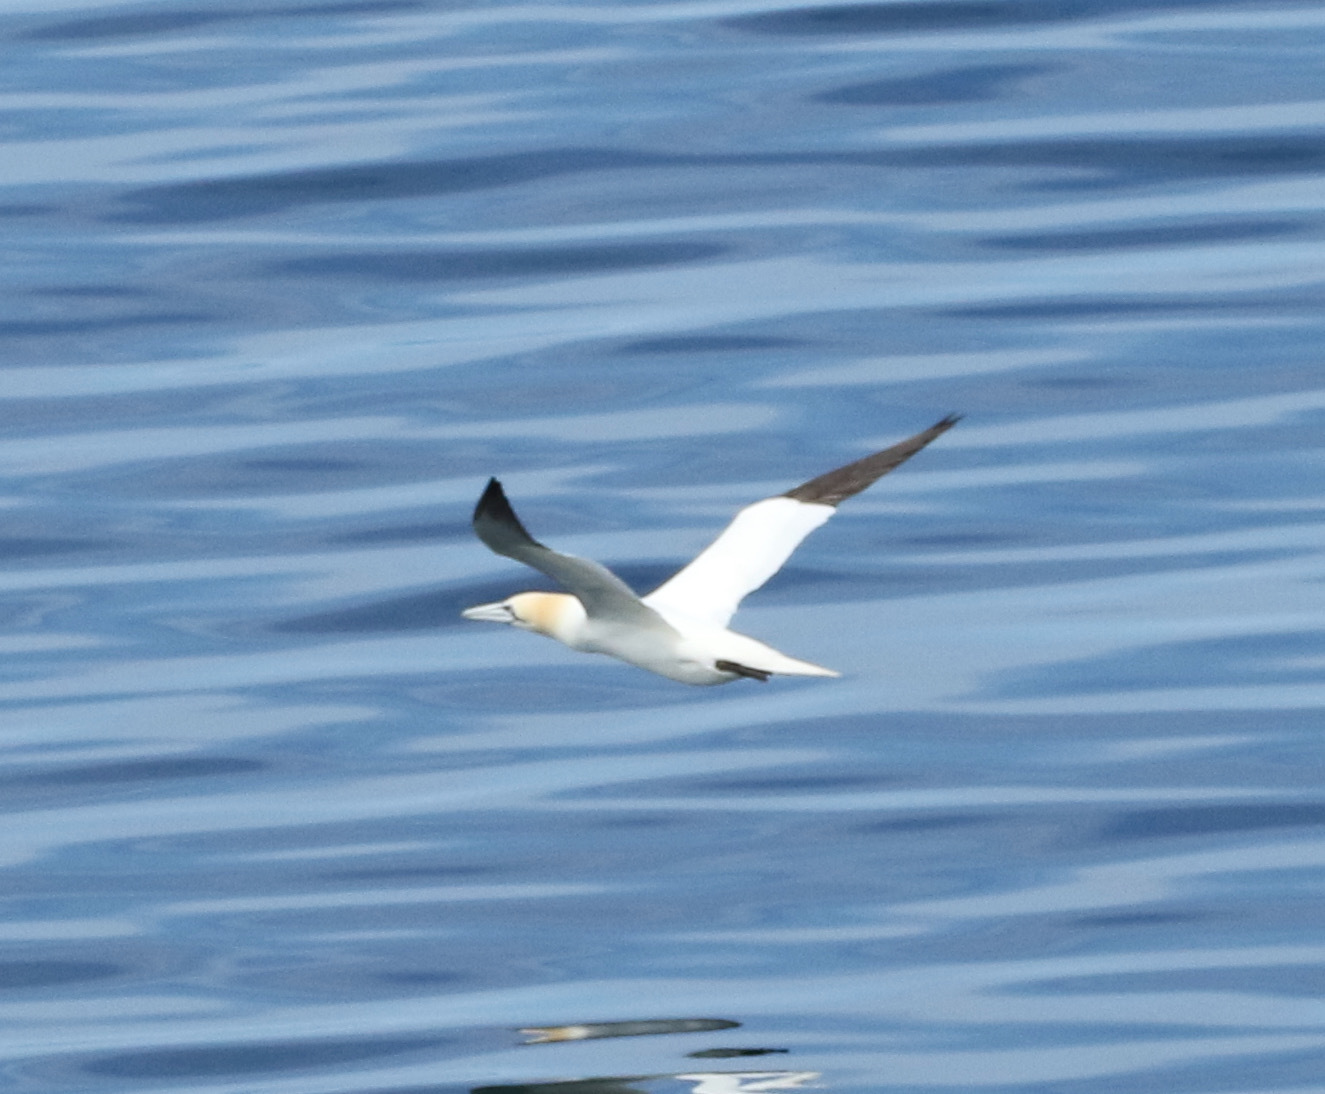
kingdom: Animalia
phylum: Chordata
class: Aves
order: Suliformes
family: Sulidae
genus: Morus
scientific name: Morus bassanus
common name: Northern gannet
